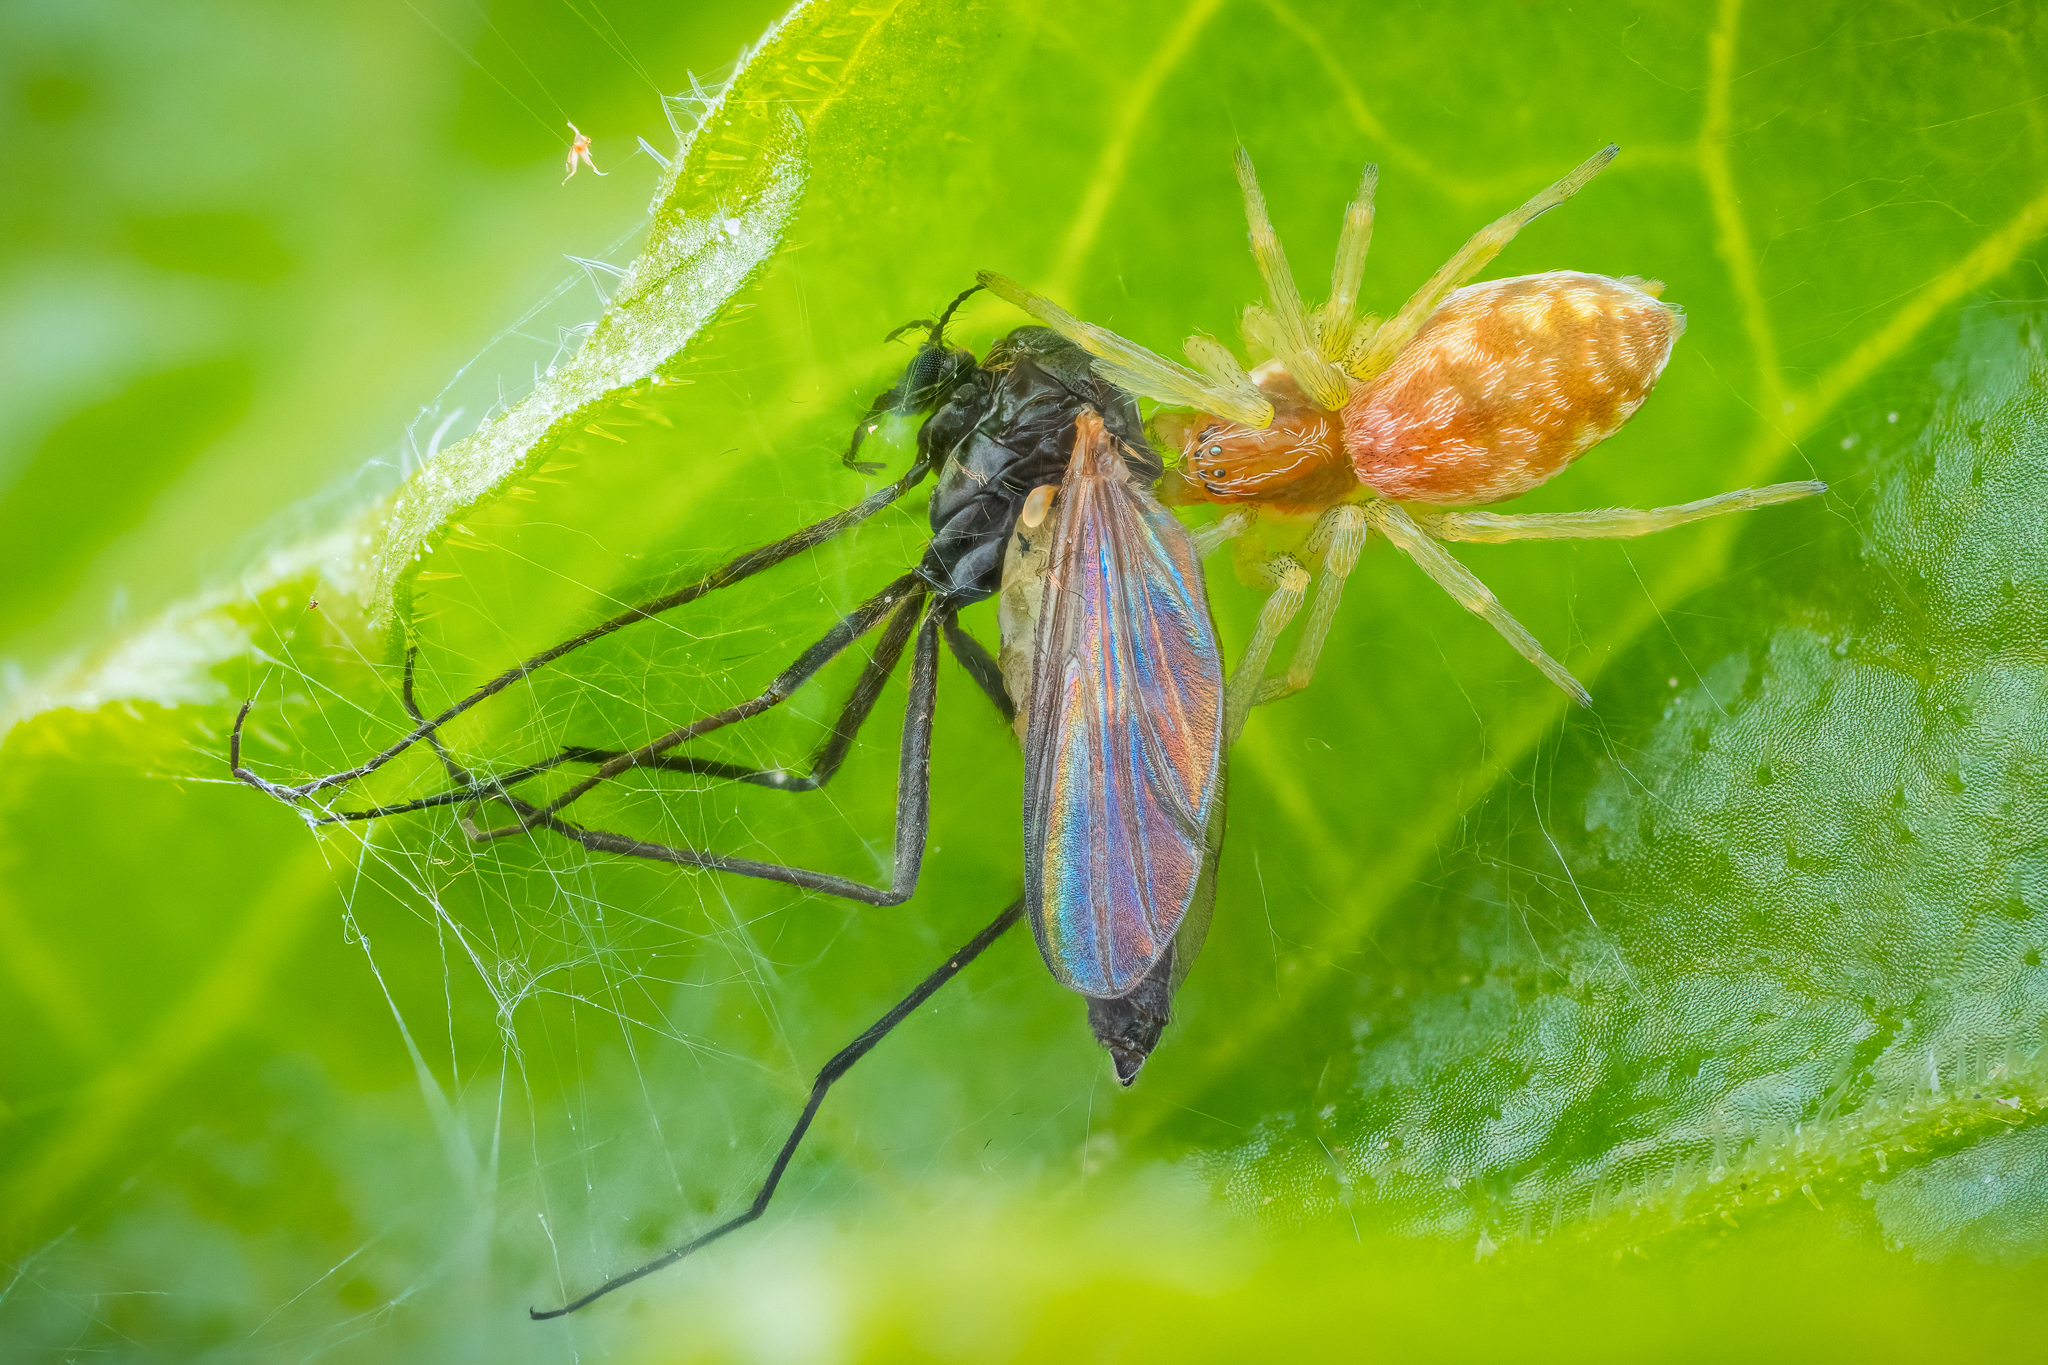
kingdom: Animalia
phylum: Arthropoda
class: Arachnida
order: Araneae
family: Dictynidae
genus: Nigma
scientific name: Nigma flavescens
